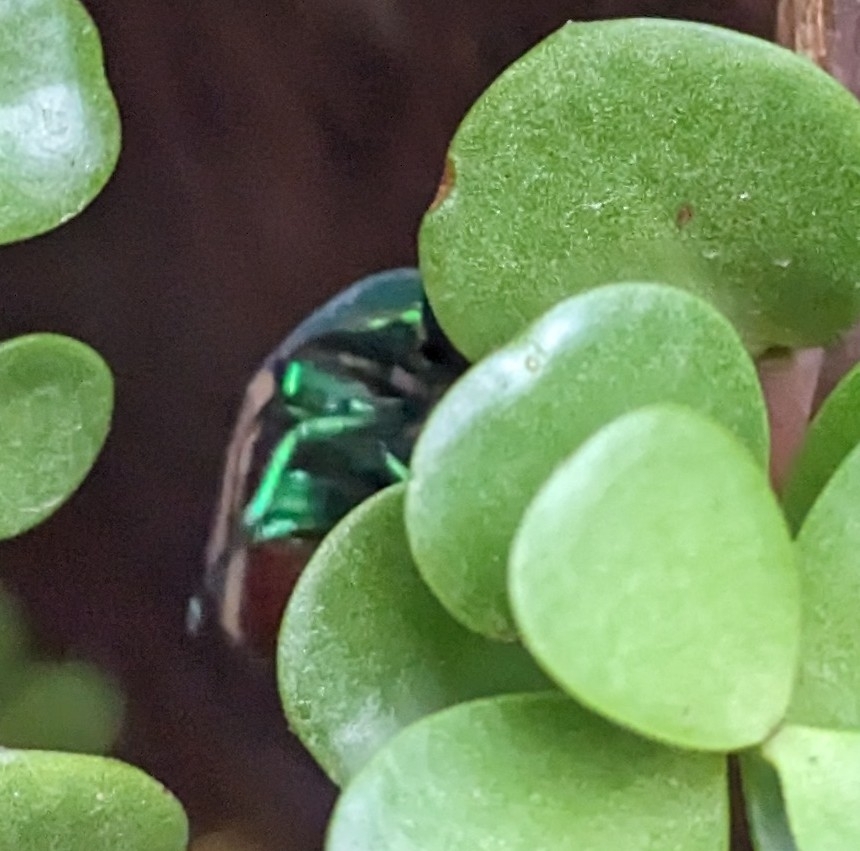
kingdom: Animalia
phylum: Arthropoda
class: Insecta
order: Coleoptera
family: Scarabaeidae
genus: Cotinis
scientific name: Cotinis mutabilis
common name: Figeater beetle
